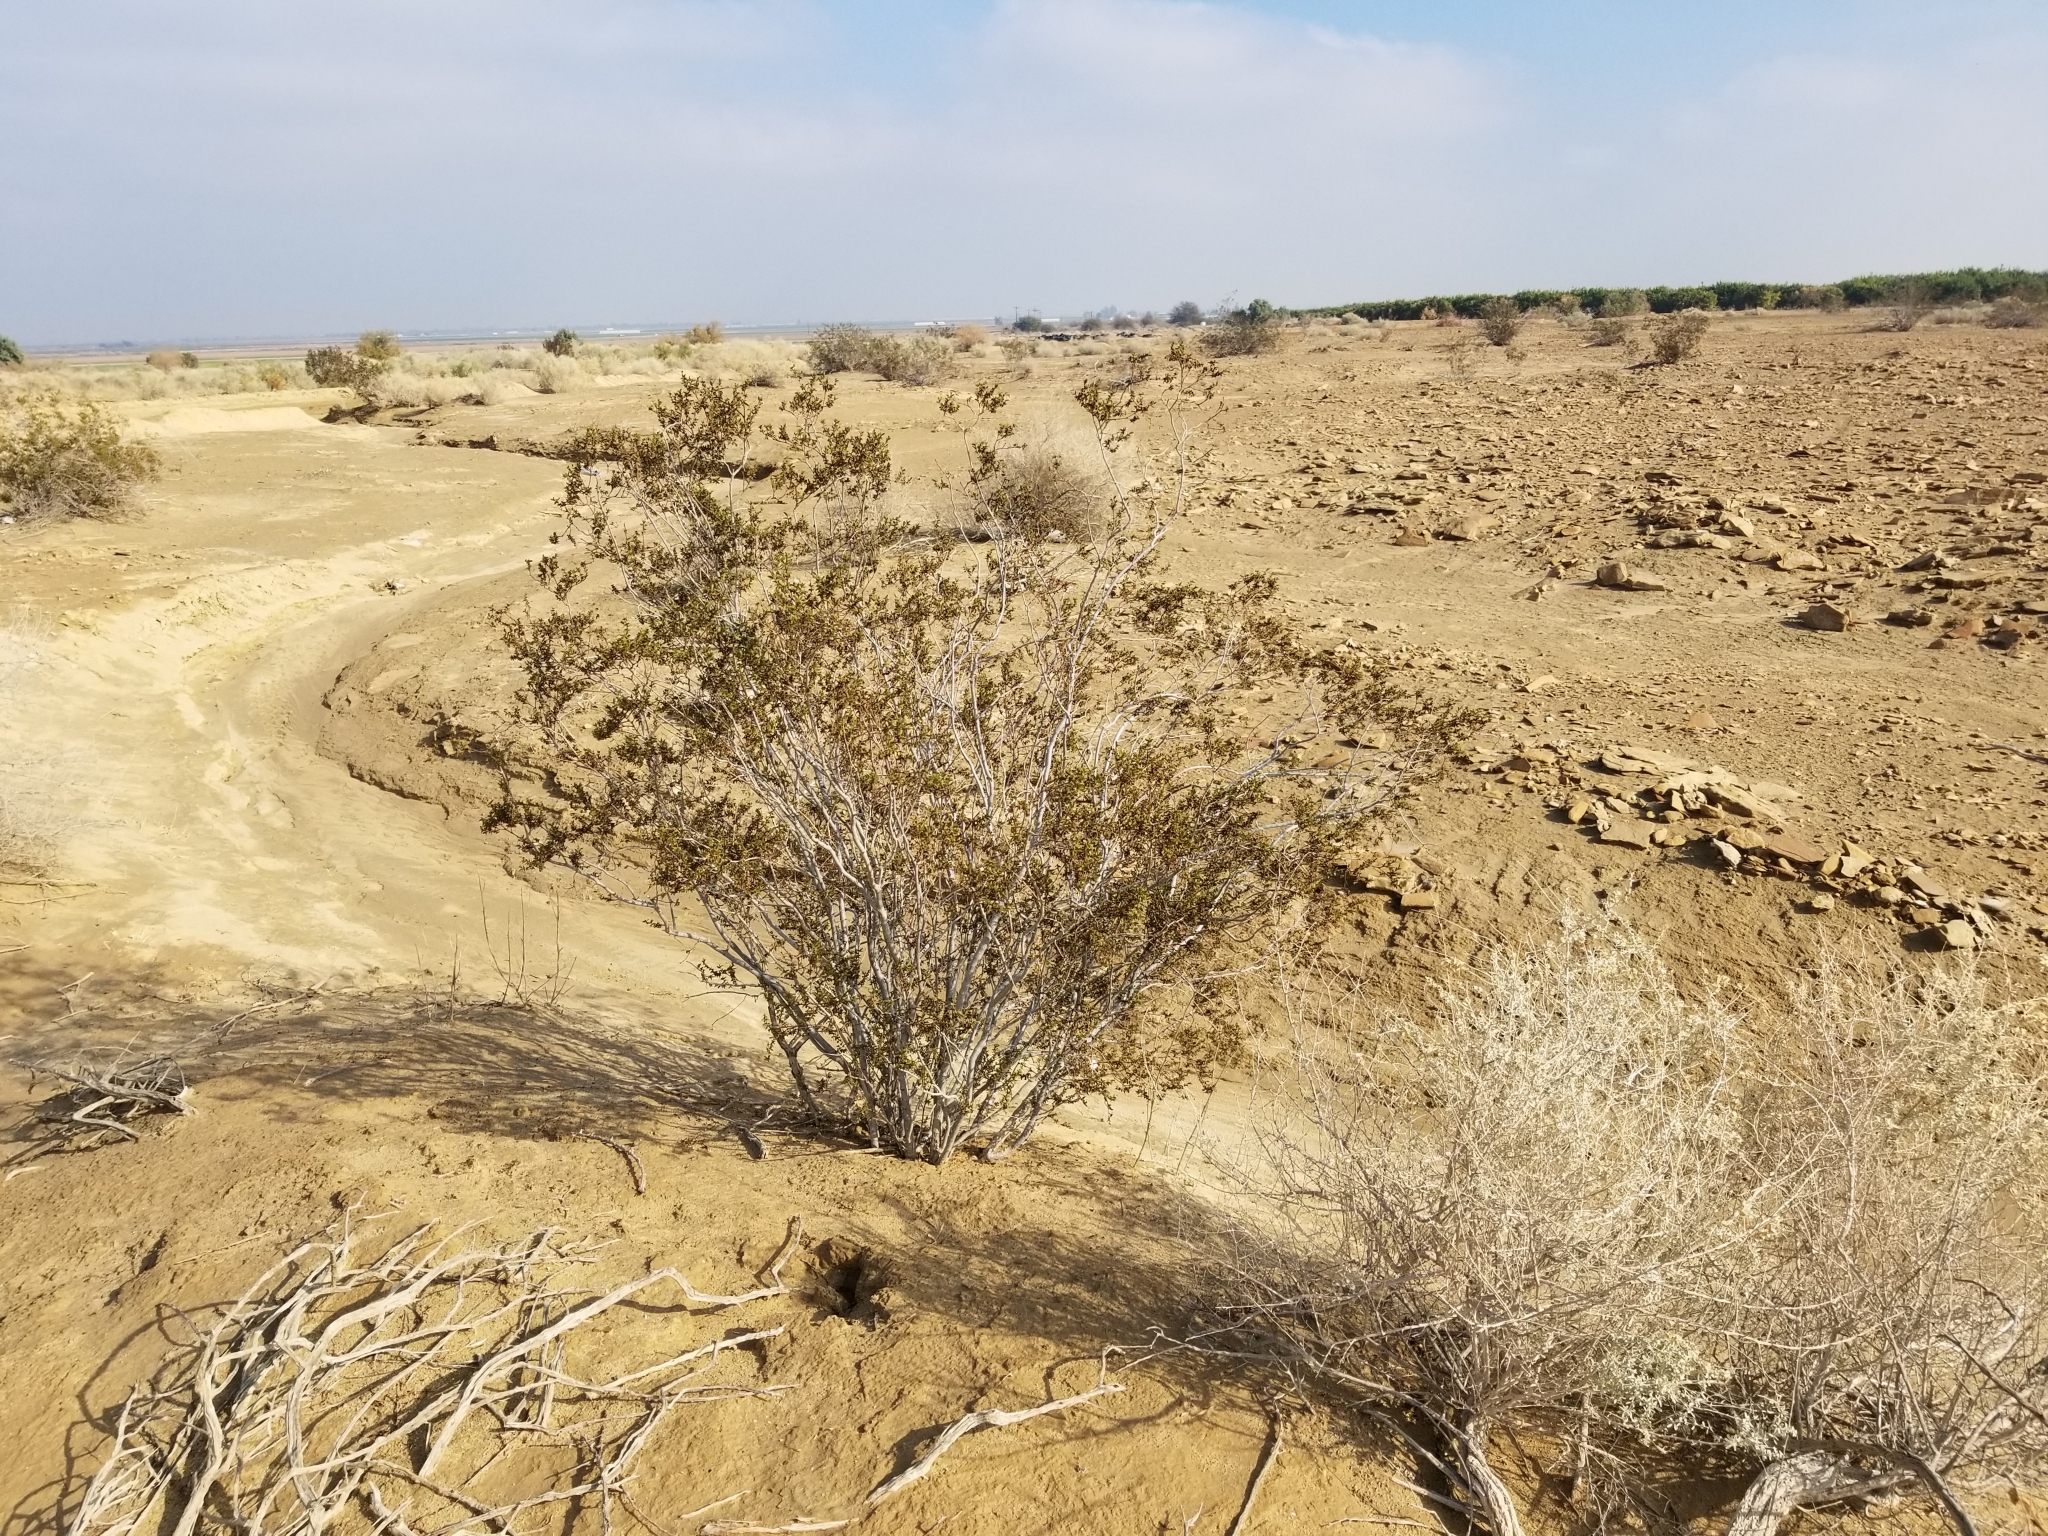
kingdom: Plantae
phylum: Tracheophyta
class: Magnoliopsida
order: Zygophyllales
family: Zygophyllaceae
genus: Larrea
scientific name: Larrea tridentata
